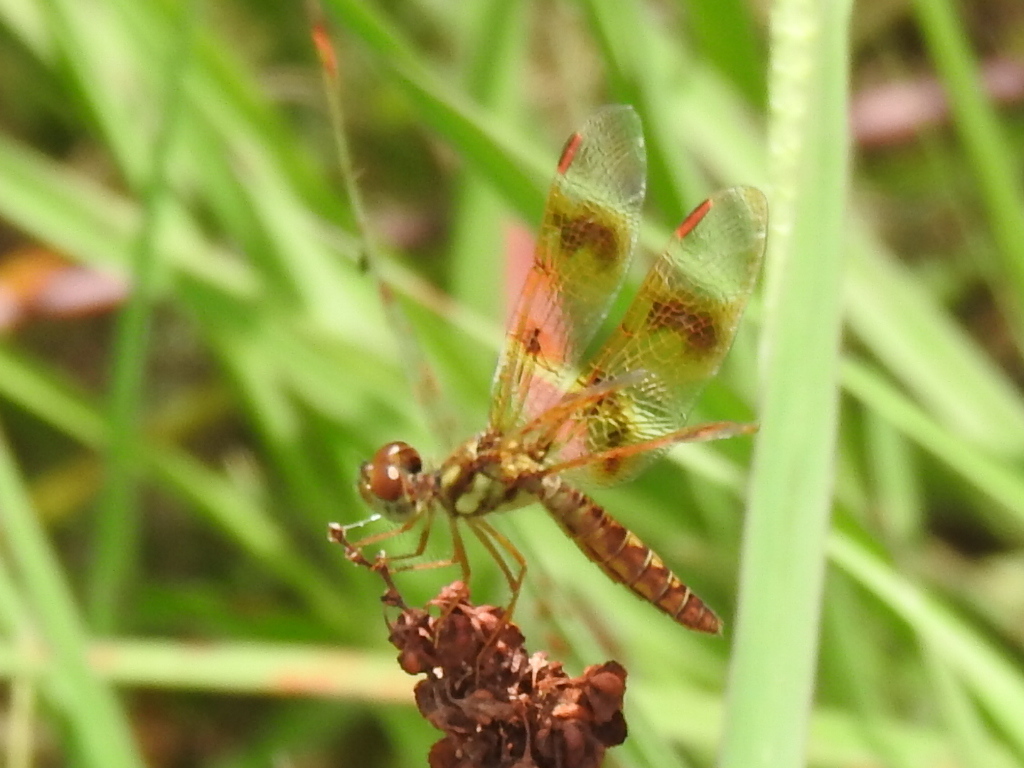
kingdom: Animalia
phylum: Arthropoda
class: Insecta
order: Odonata
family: Libellulidae
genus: Perithemis
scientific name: Perithemis tenera
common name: Eastern amberwing
